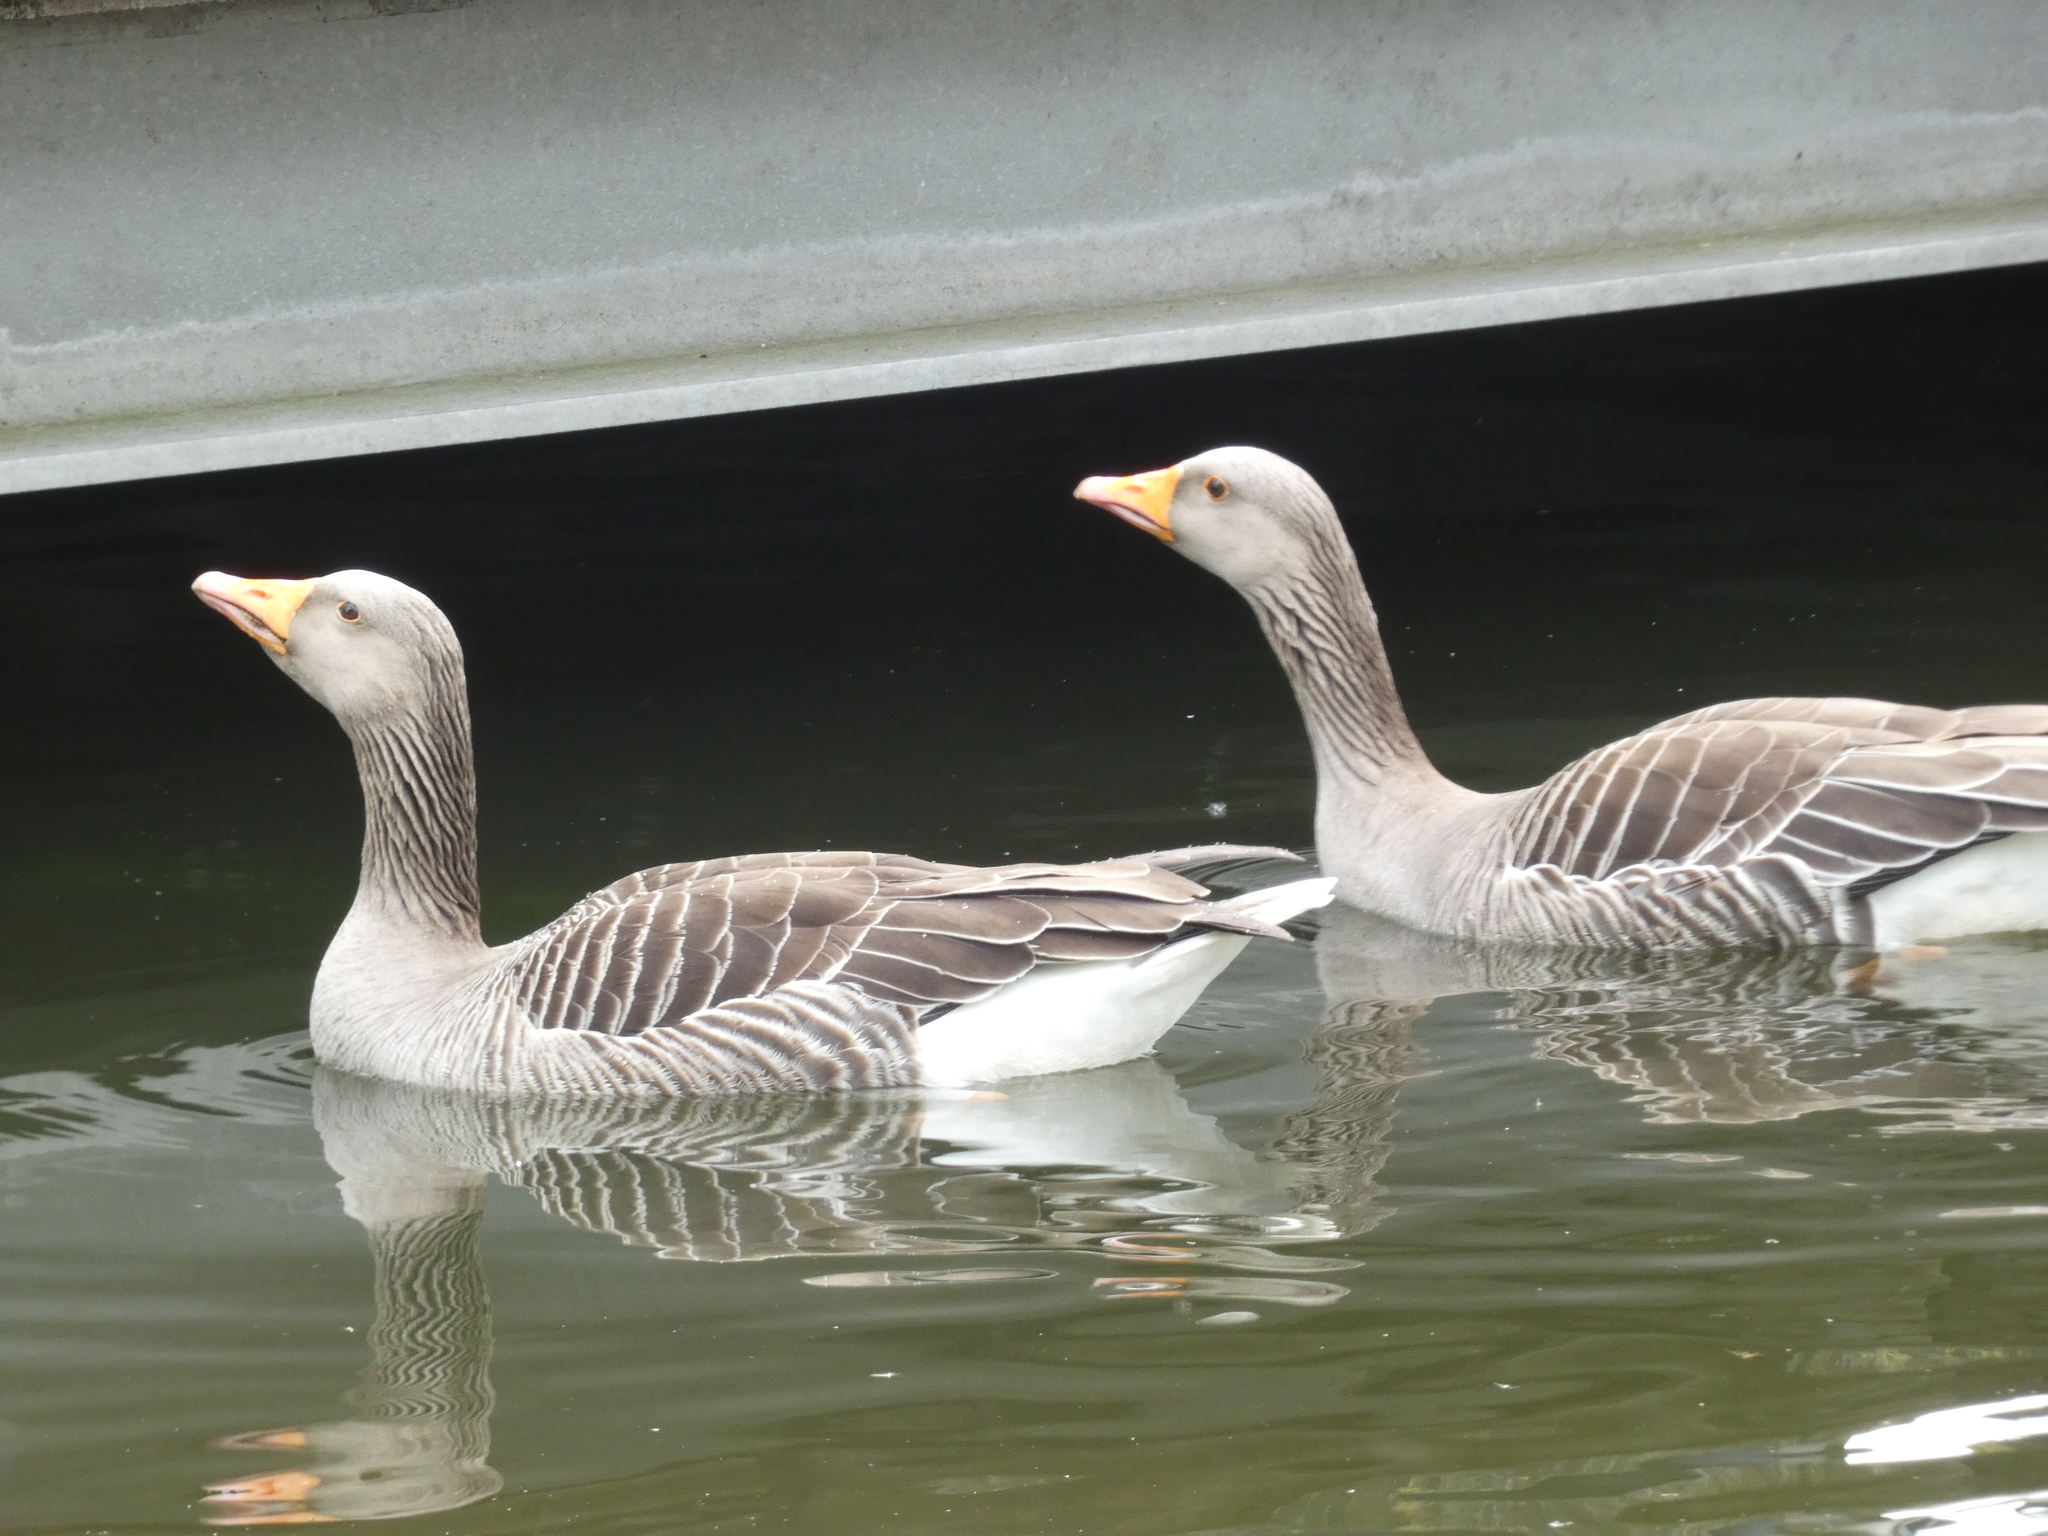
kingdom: Animalia
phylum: Chordata
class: Aves
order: Anseriformes
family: Anatidae
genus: Anser
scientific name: Anser anser
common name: Greylag goose
